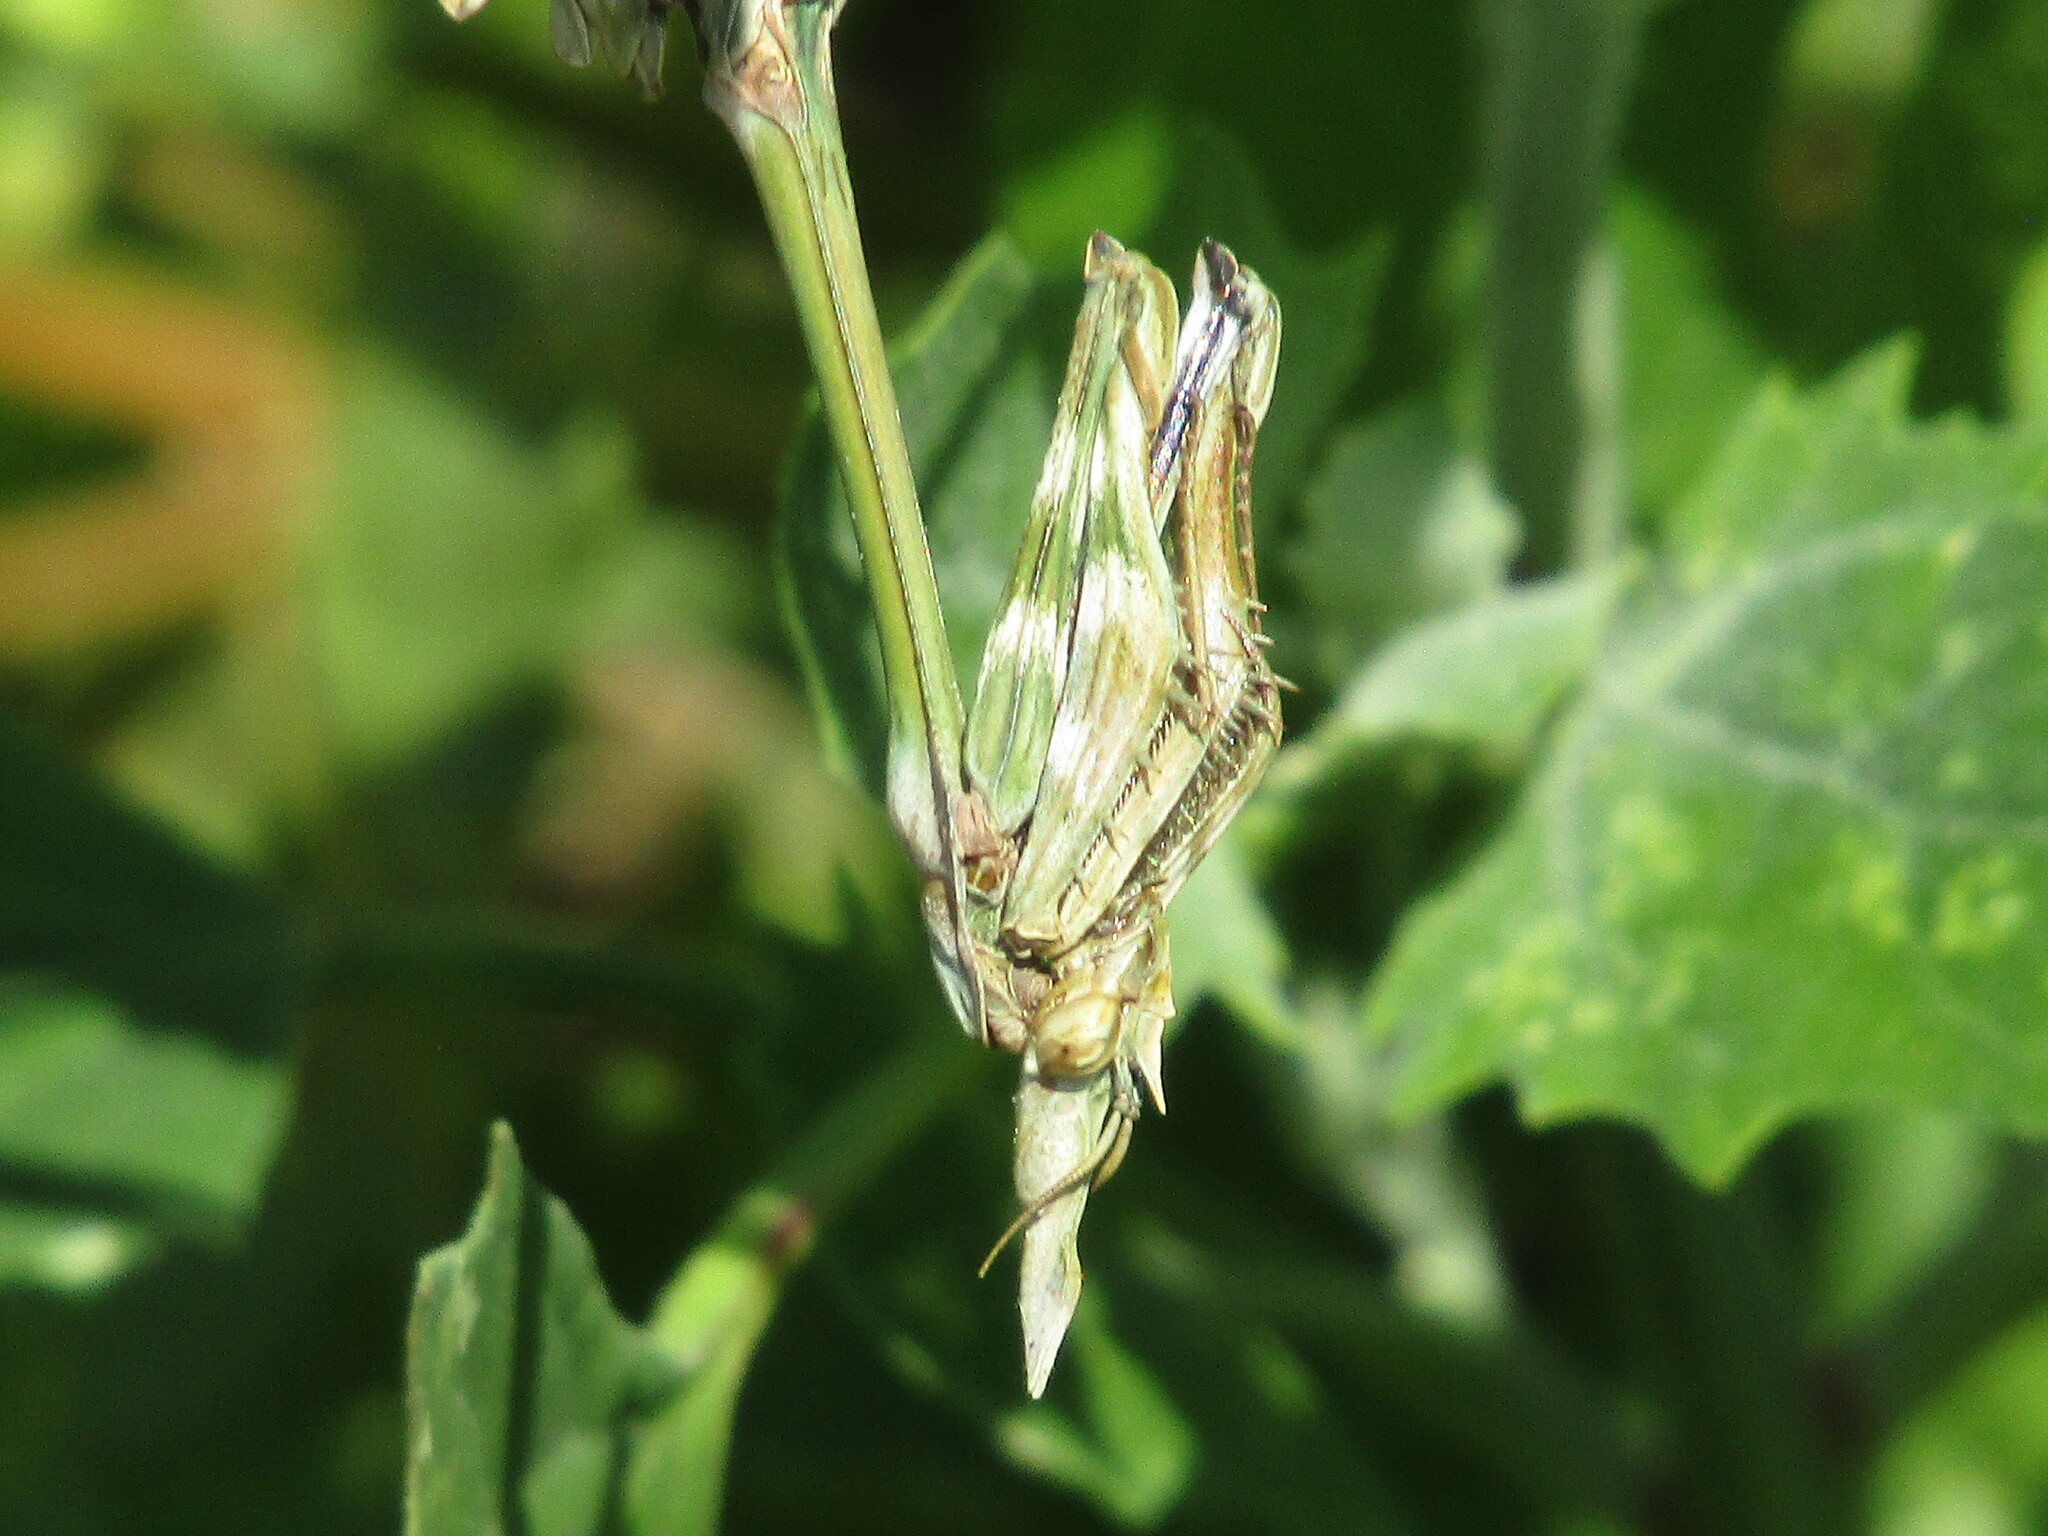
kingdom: Animalia
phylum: Arthropoda
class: Insecta
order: Mantodea
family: Empusidae
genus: Empusa
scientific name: Empusa fasciata
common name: Devil's mare
